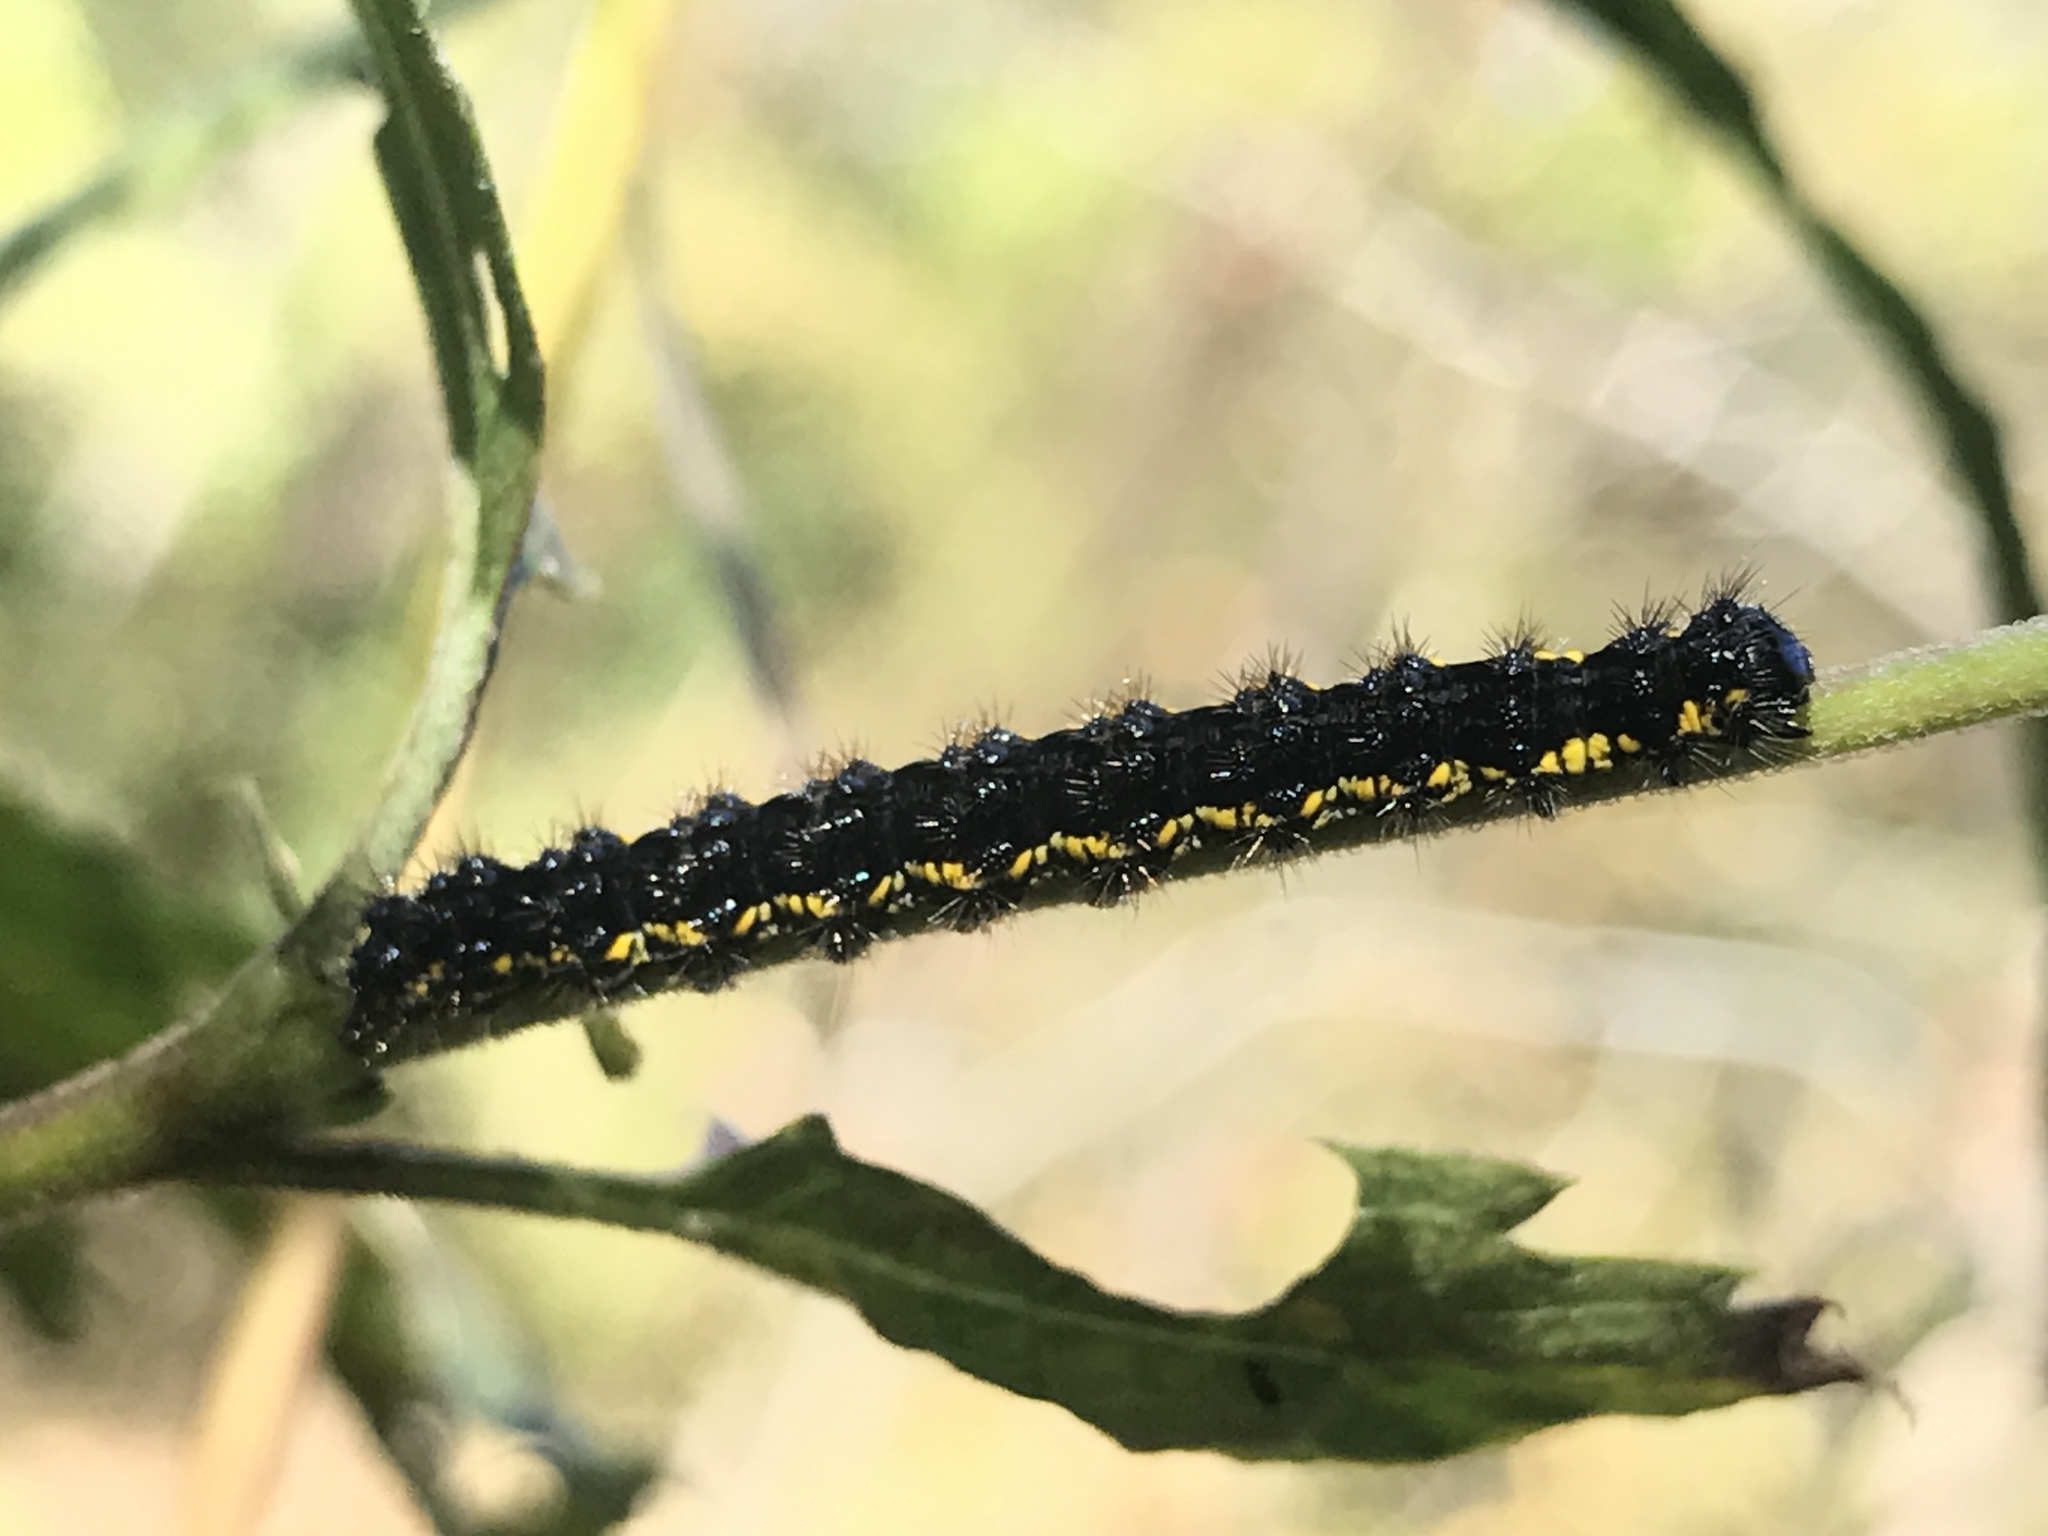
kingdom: Animalia
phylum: Arthropoda
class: Insecta
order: Lepidoptera
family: Erebidae
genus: Haploa
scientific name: Haploa lecontei
